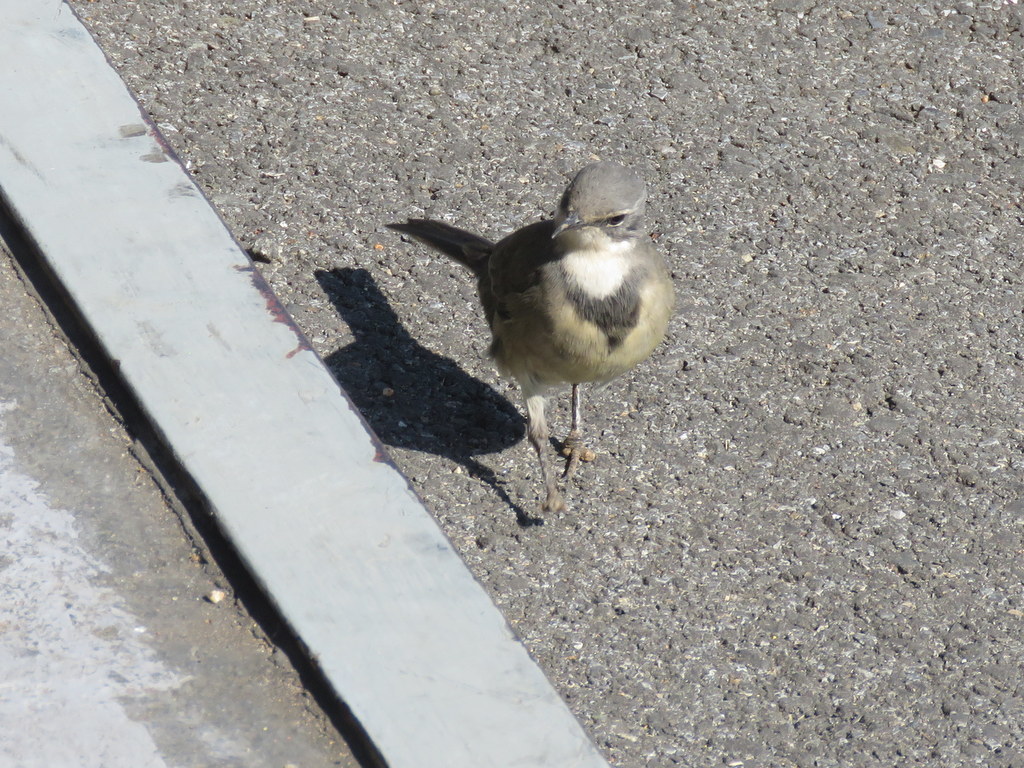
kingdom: Animalia
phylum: Chordata
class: Aves
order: Passeriformes
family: Motacillidae
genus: Motacilla
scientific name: Motacilla capensis
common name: Cape wagtail
